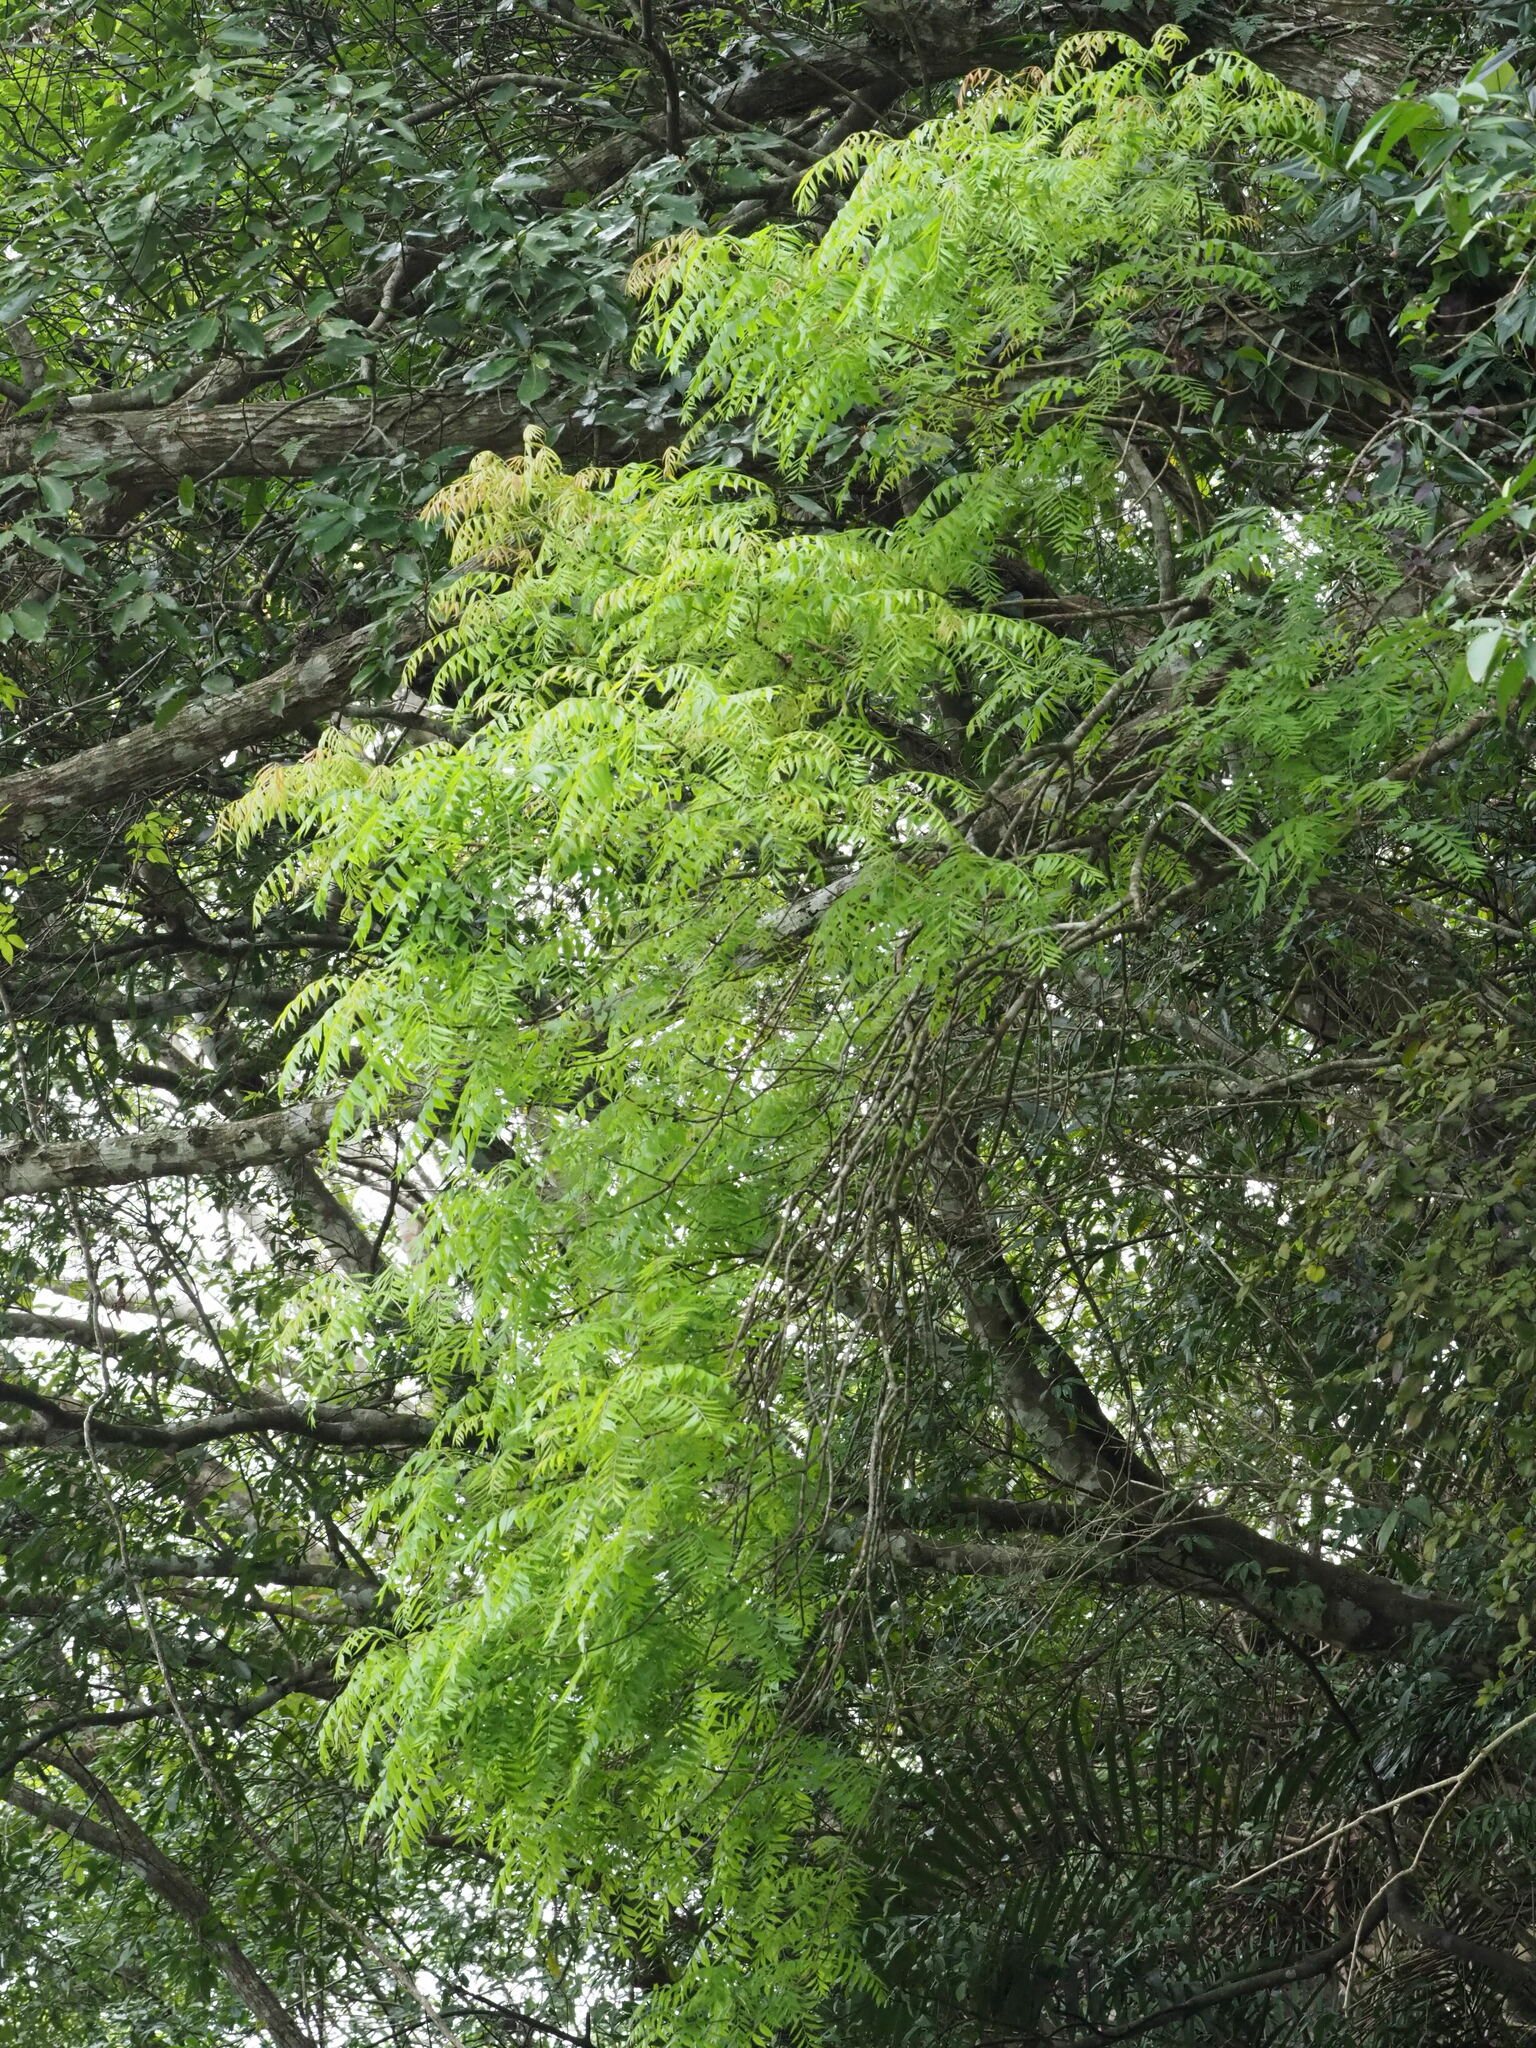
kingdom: Plantae
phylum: Tracheophyta
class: Magnoliopsida
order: Sapindales
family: Anacardiaceae
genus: Pistacia
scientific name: Pistacia chinensis
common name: Chinese pistache
